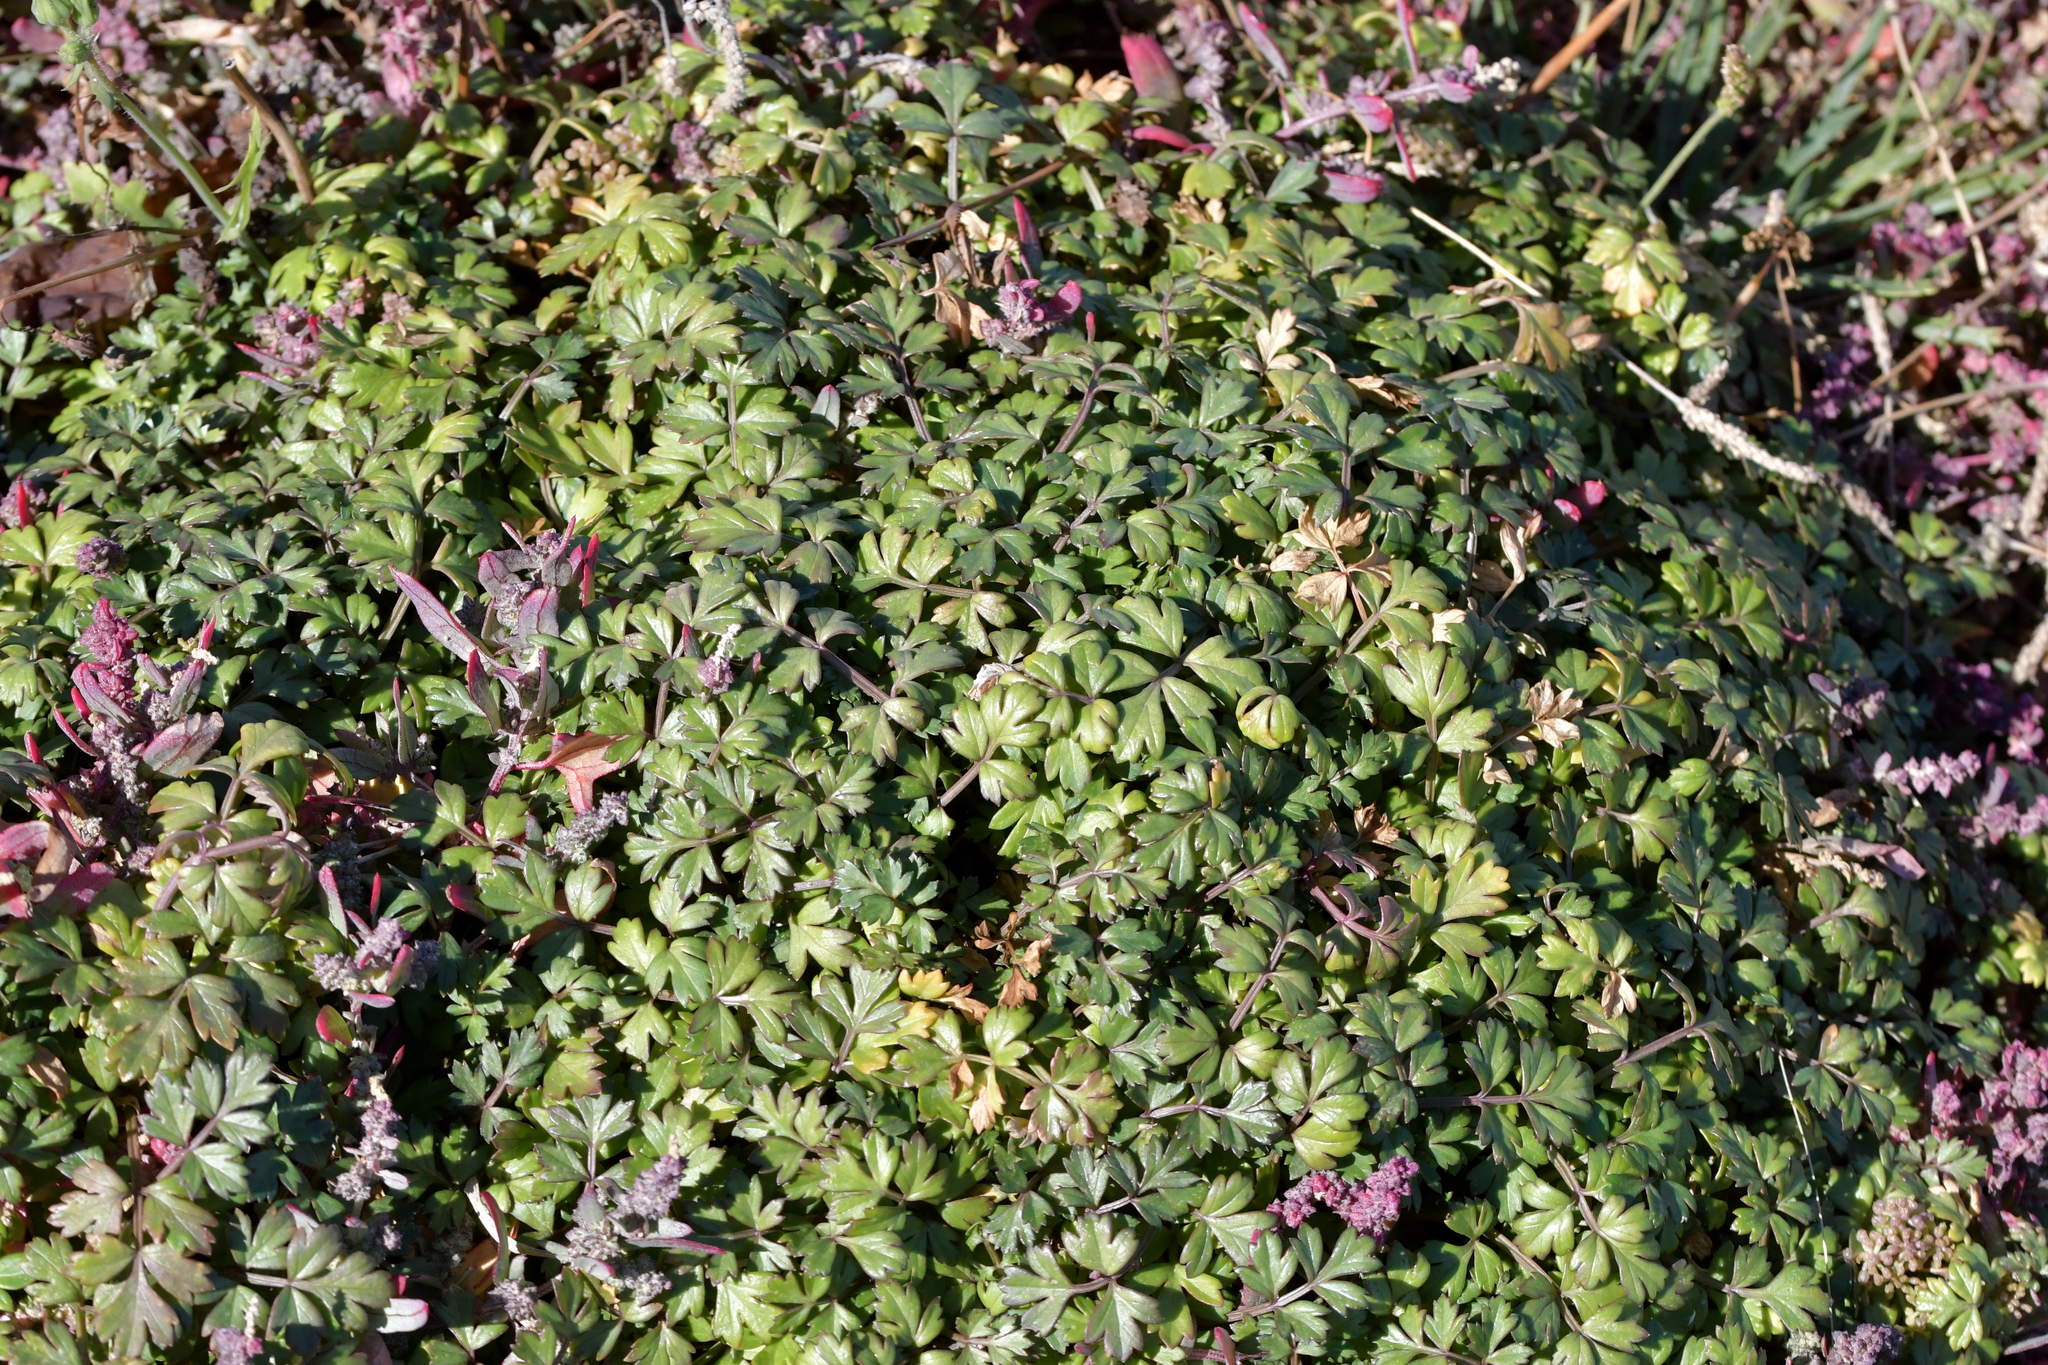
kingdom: Plantae
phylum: Tracheophyta
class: Magnoliopsida
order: Apiales
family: Apiaceae
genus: Apium
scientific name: Apium prostratum
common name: Prostrate marshwort
